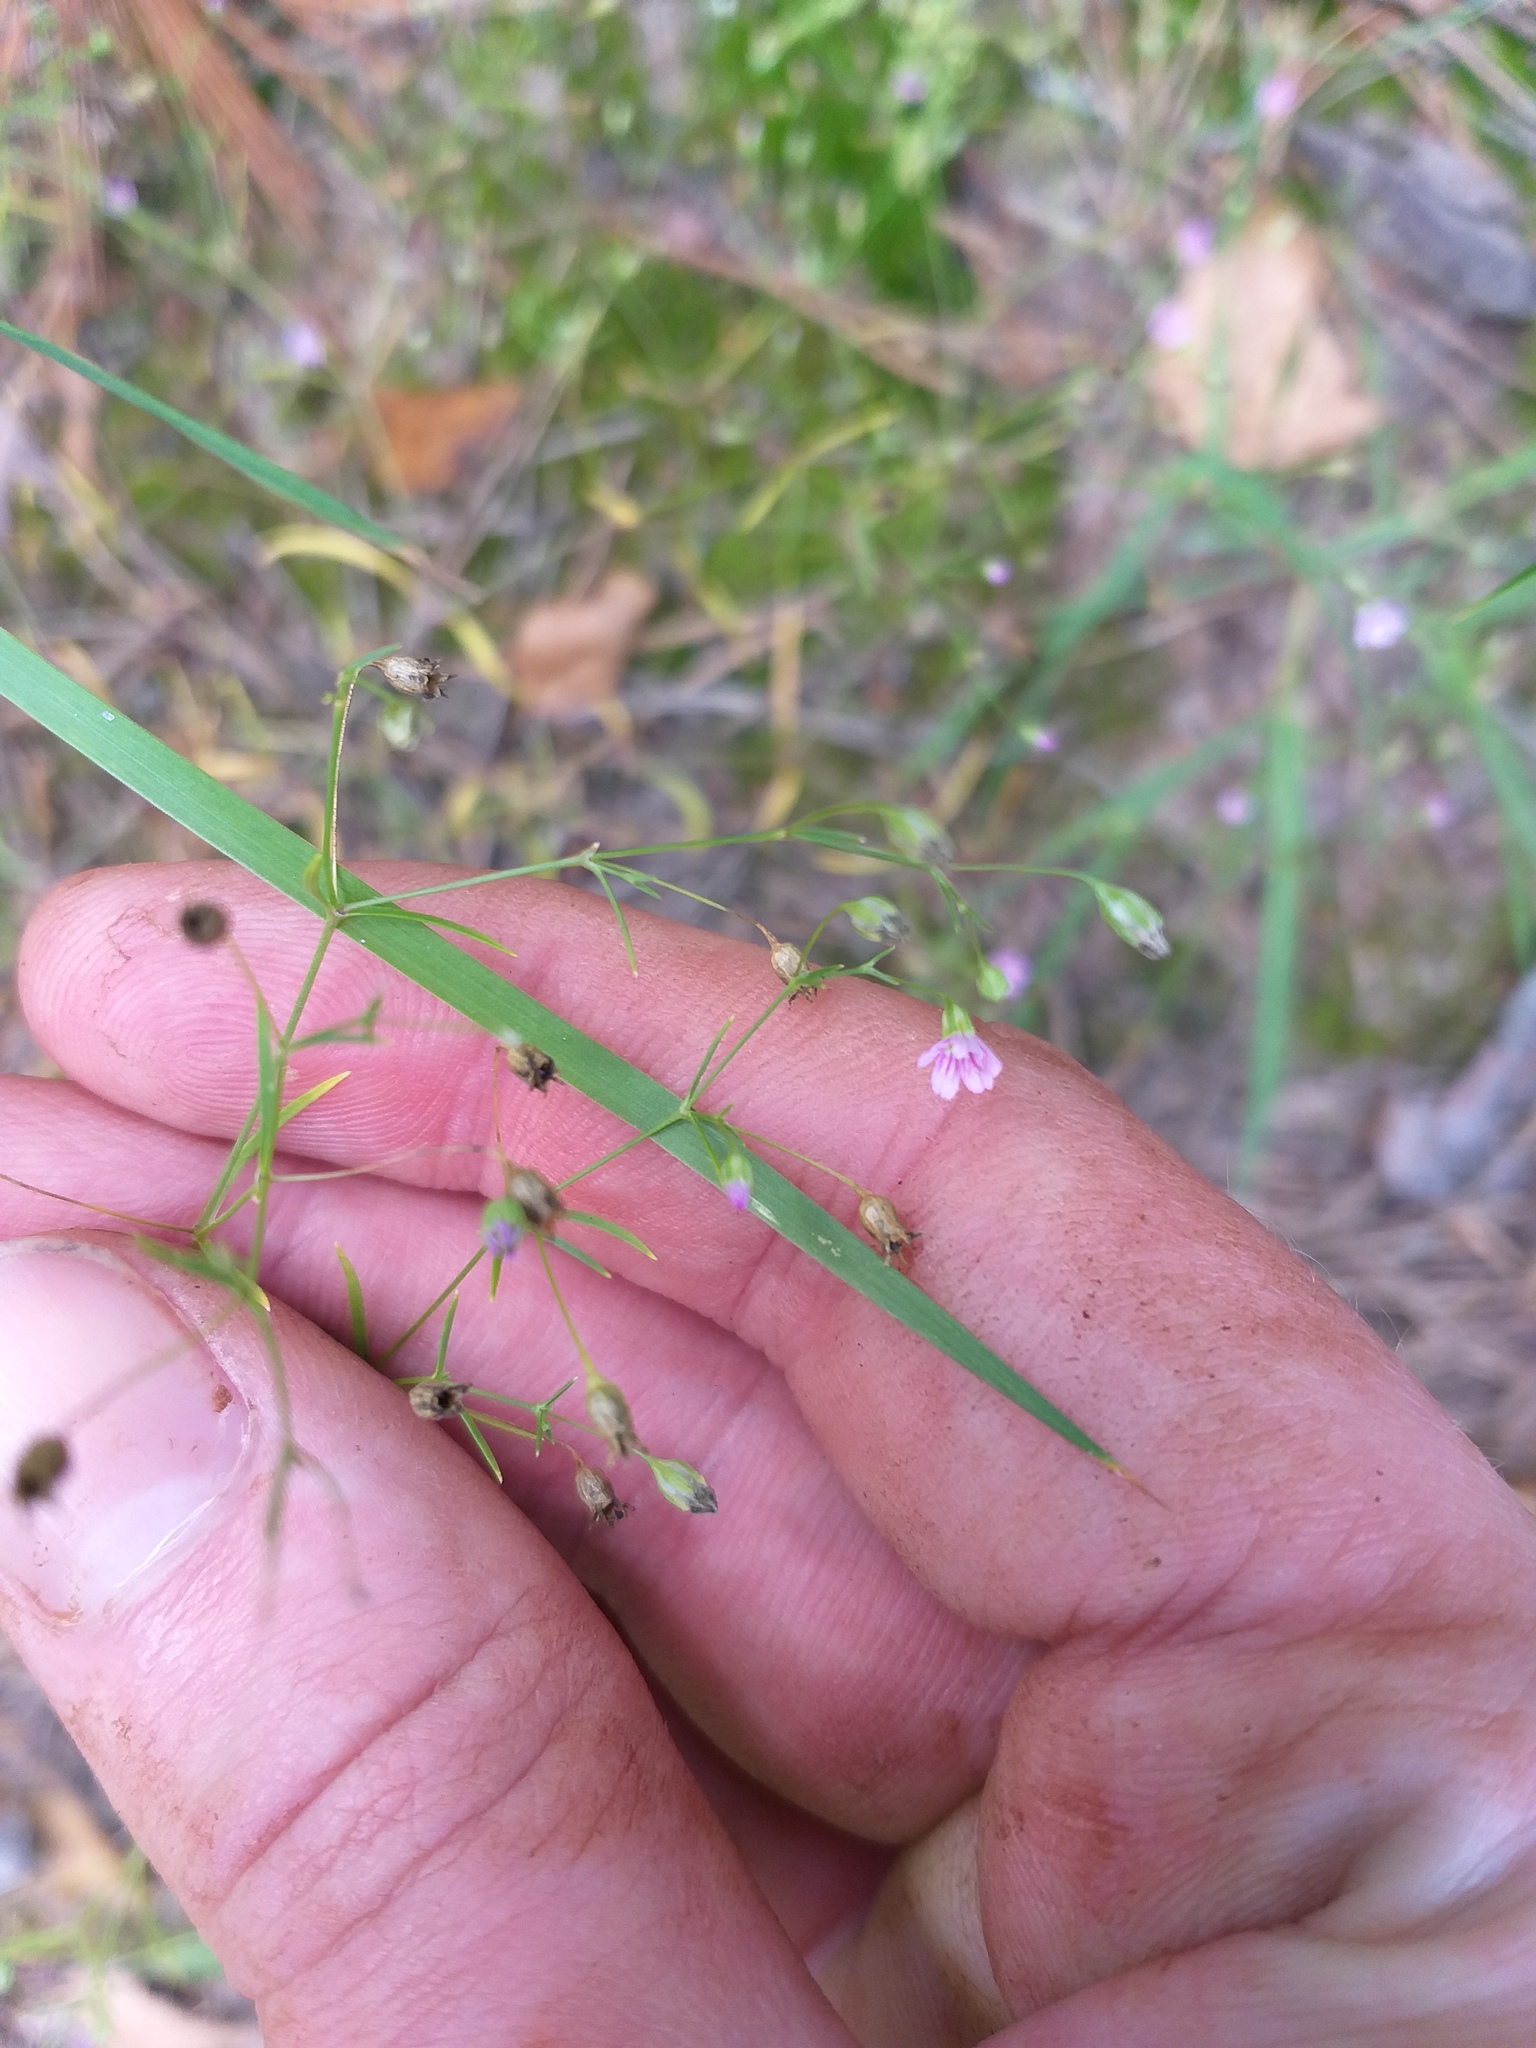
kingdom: Plantae
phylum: Tracheophyta
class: Magnoliopsida
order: Caryophyllales
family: Caryophyllaceae
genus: Psammophiliella
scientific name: Psammophiliella muralis
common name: Cushion baby's-breath
